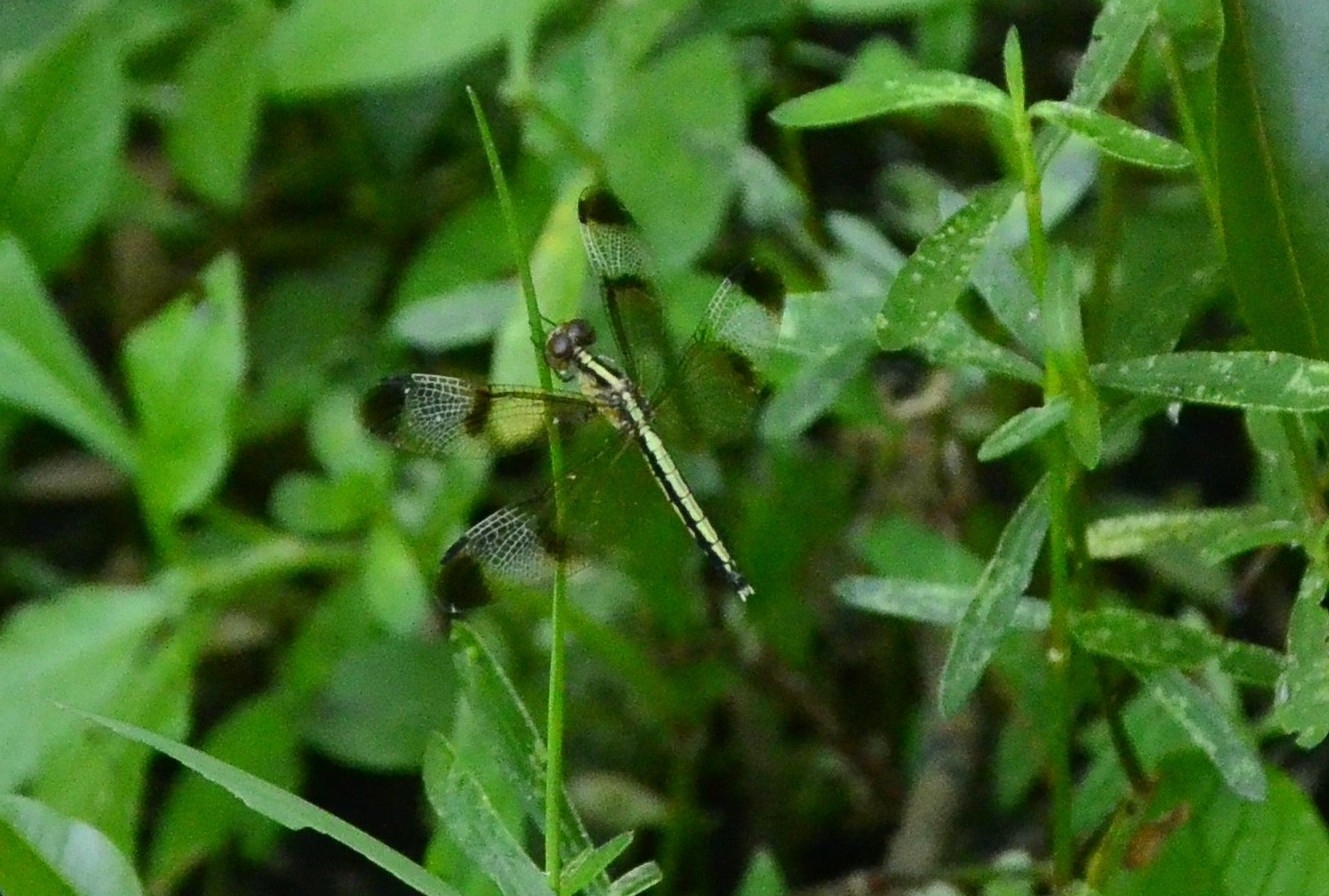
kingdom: Animalia
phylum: Arthropoda
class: Insecta
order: Odonata
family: Libellulidae
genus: Neurothemis
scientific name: Neurothemis tullia
